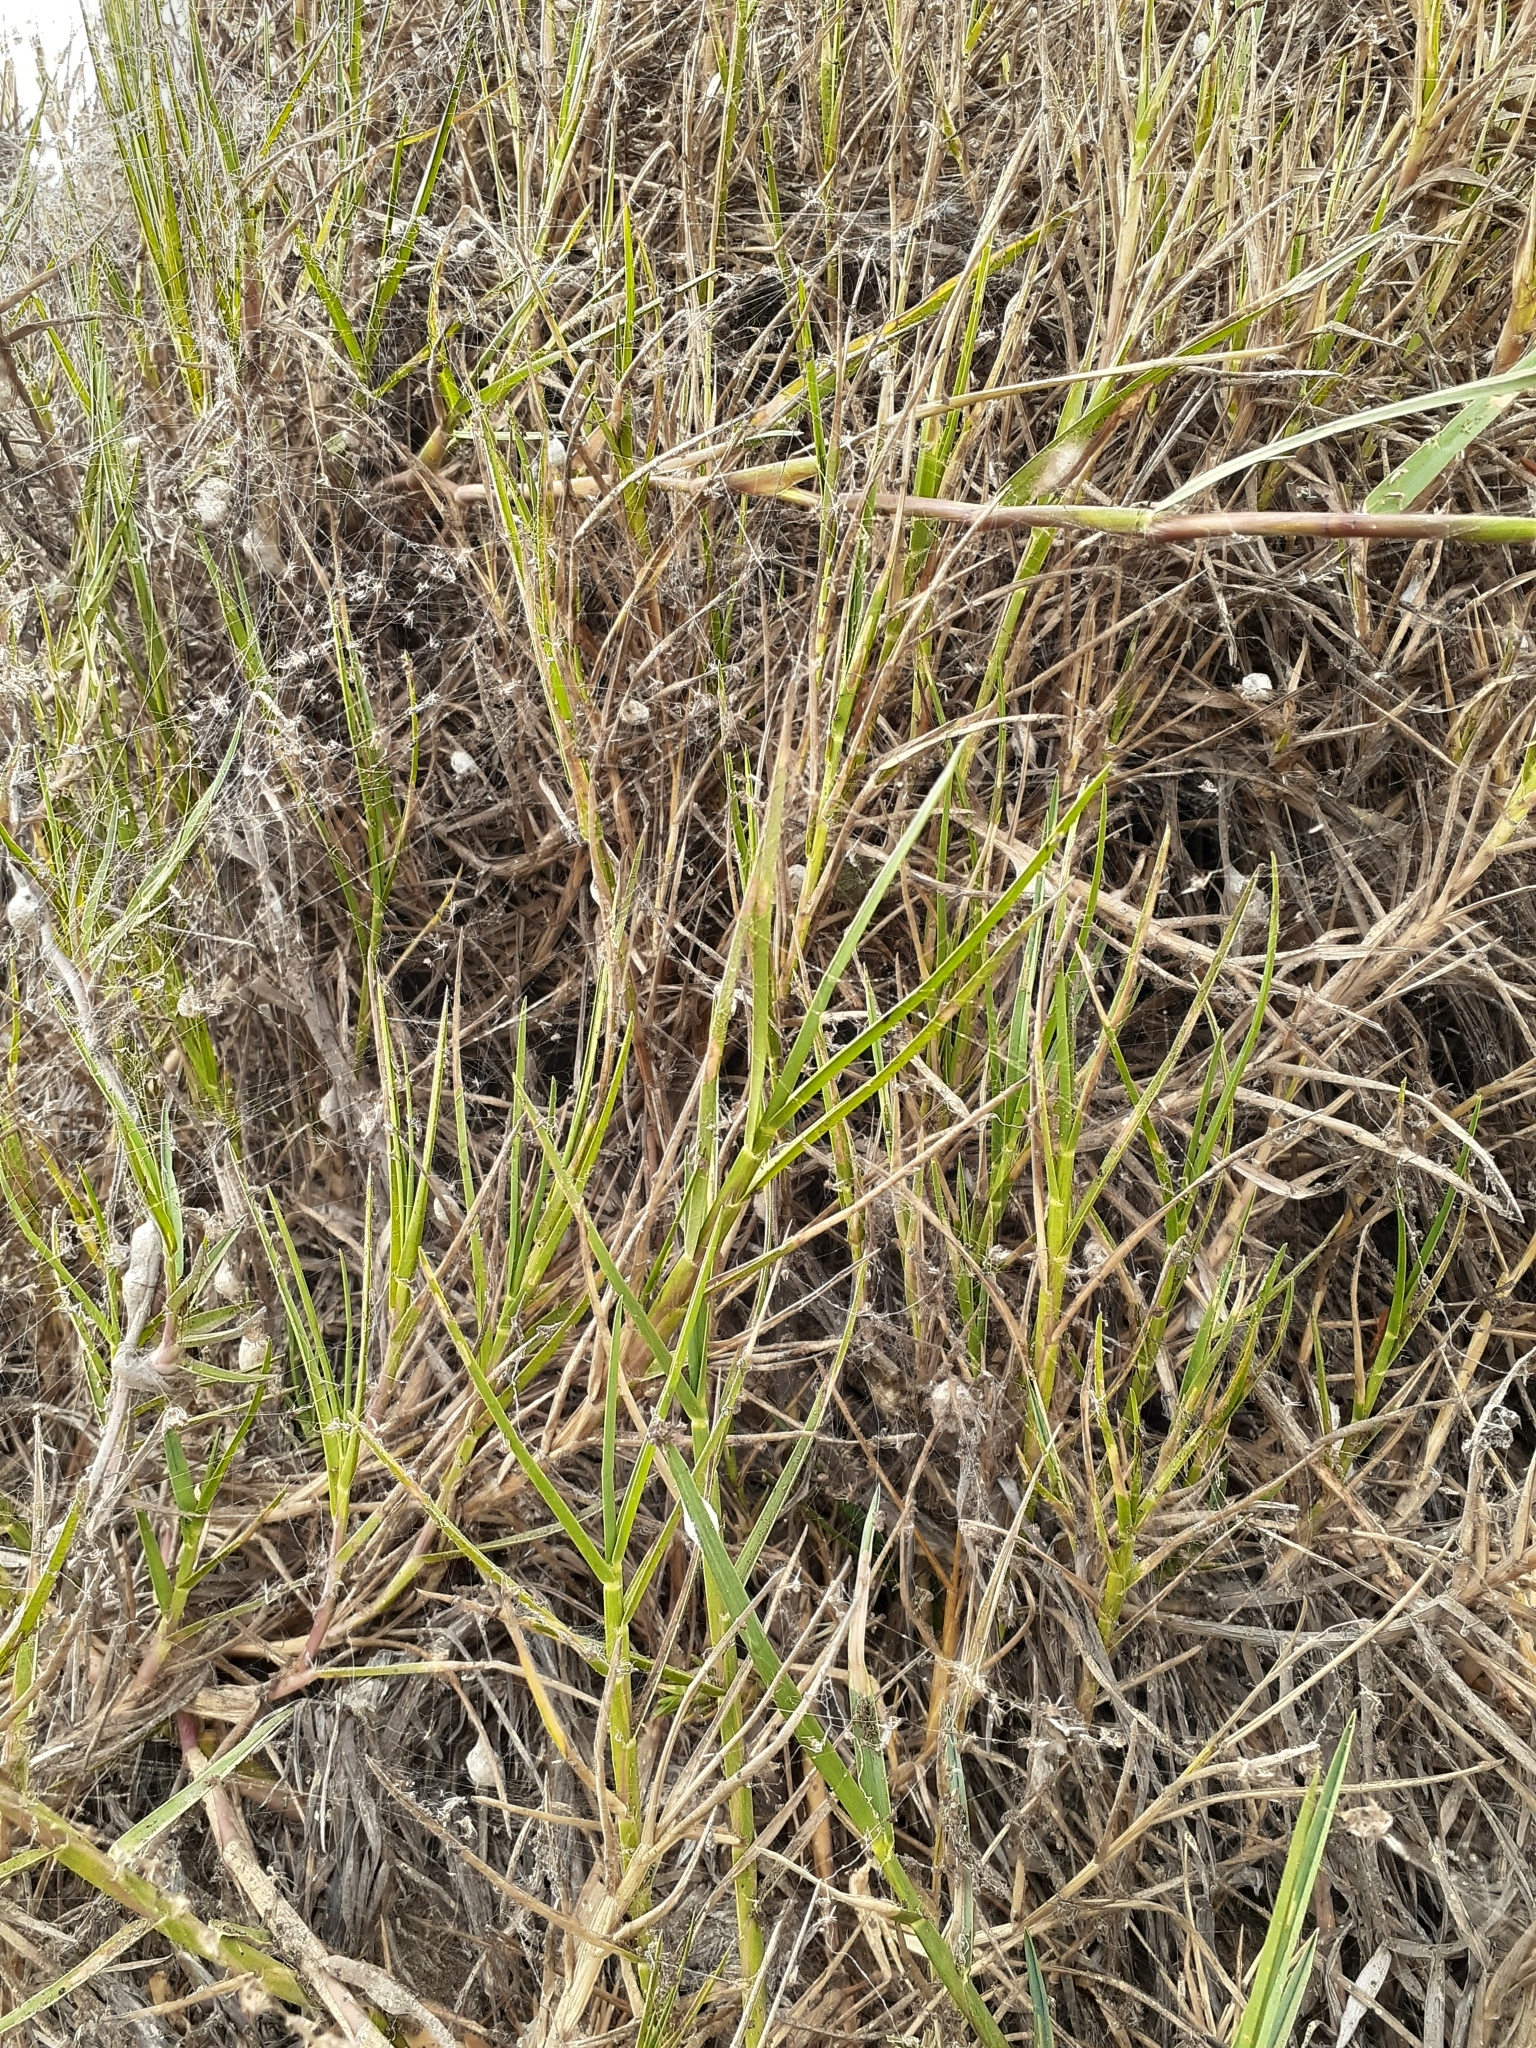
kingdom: Plantae
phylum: Tracheophyta
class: Liliopsida
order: Poales
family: Poaceae
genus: Distichlis
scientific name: Distichlis spicata
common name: Saltgrass
